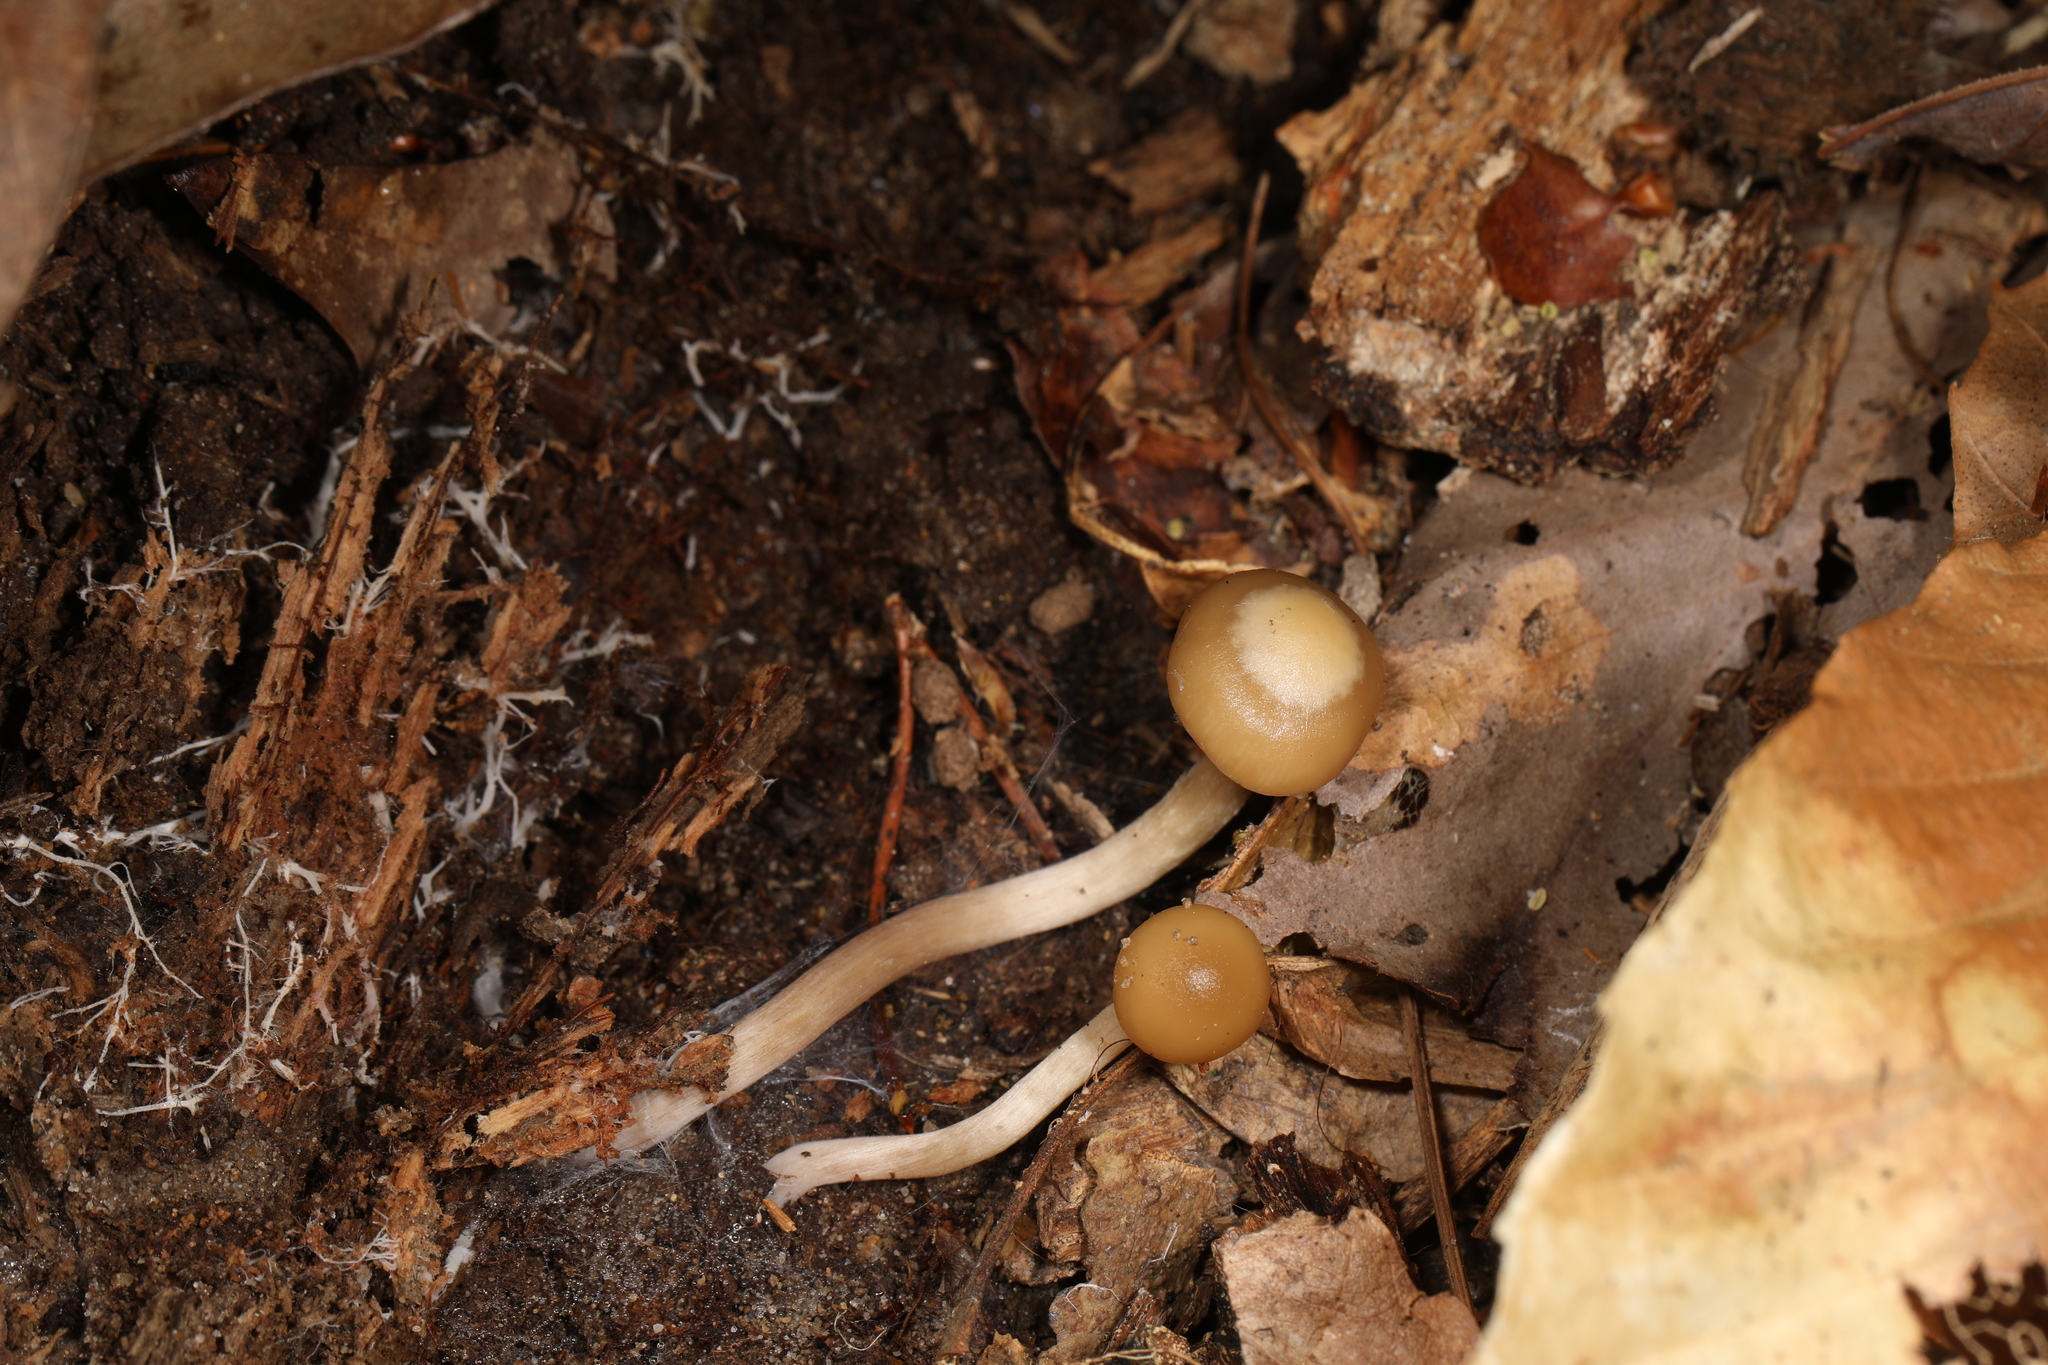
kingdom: Fungi
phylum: Basidiomycota
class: Agaricomycetes
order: Agaricales
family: Hymenogastraceae
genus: Psilocybe
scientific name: Psilocybe ovoideocystidiata
